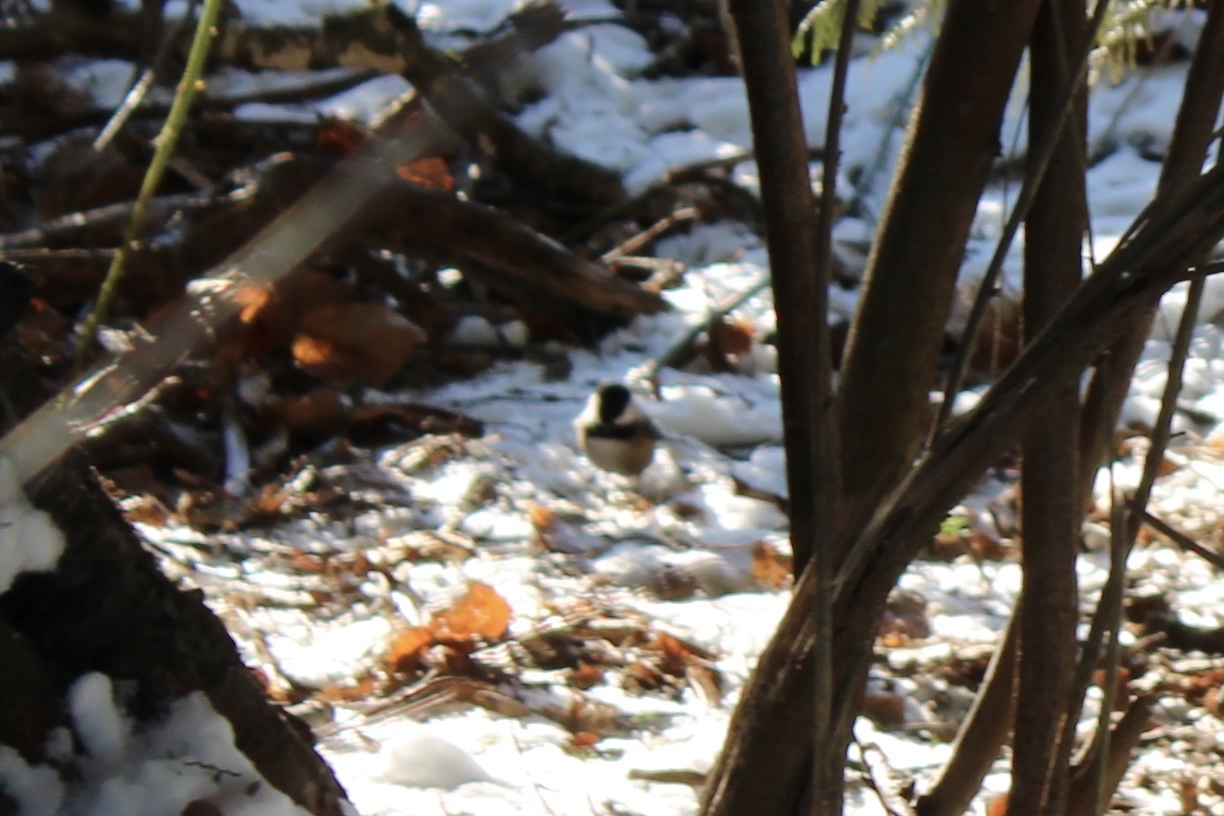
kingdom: Animalia
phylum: Chordata
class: Aves
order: Passeriformes
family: Paridae
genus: Poecile
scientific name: Poecile atricapillus
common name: Black-capped chickadee
